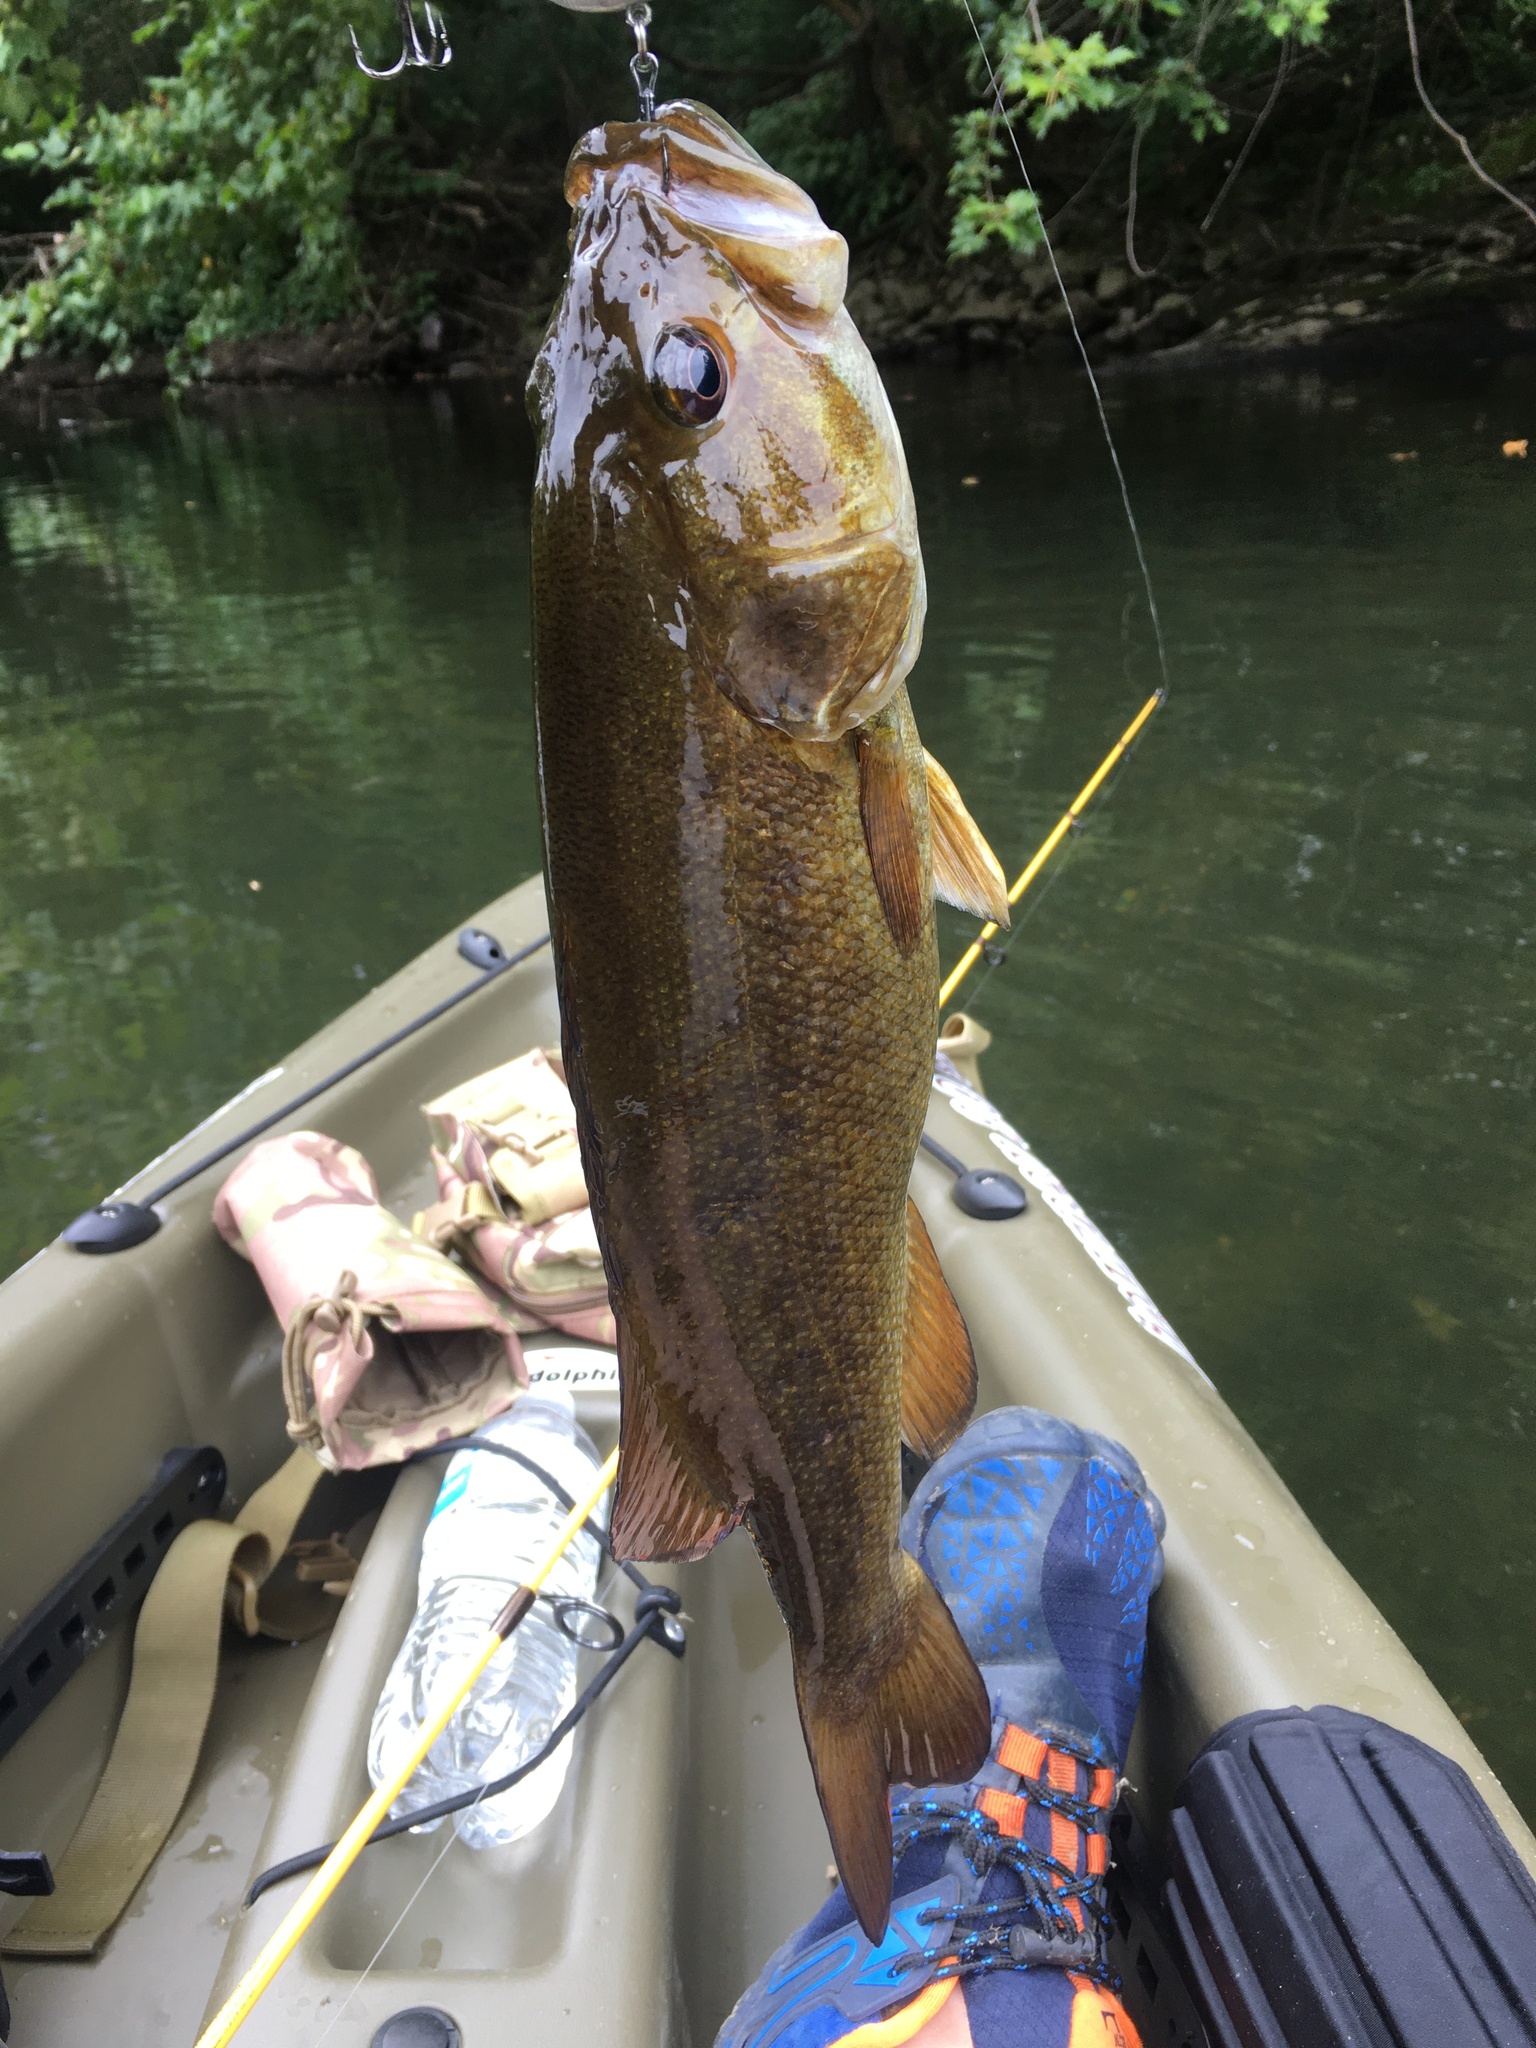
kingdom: Animalia
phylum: Chordata
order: Perciformes
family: Centrarchidae
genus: Micropterus
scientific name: Micropterus dolomieu
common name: Smallmouth bass
